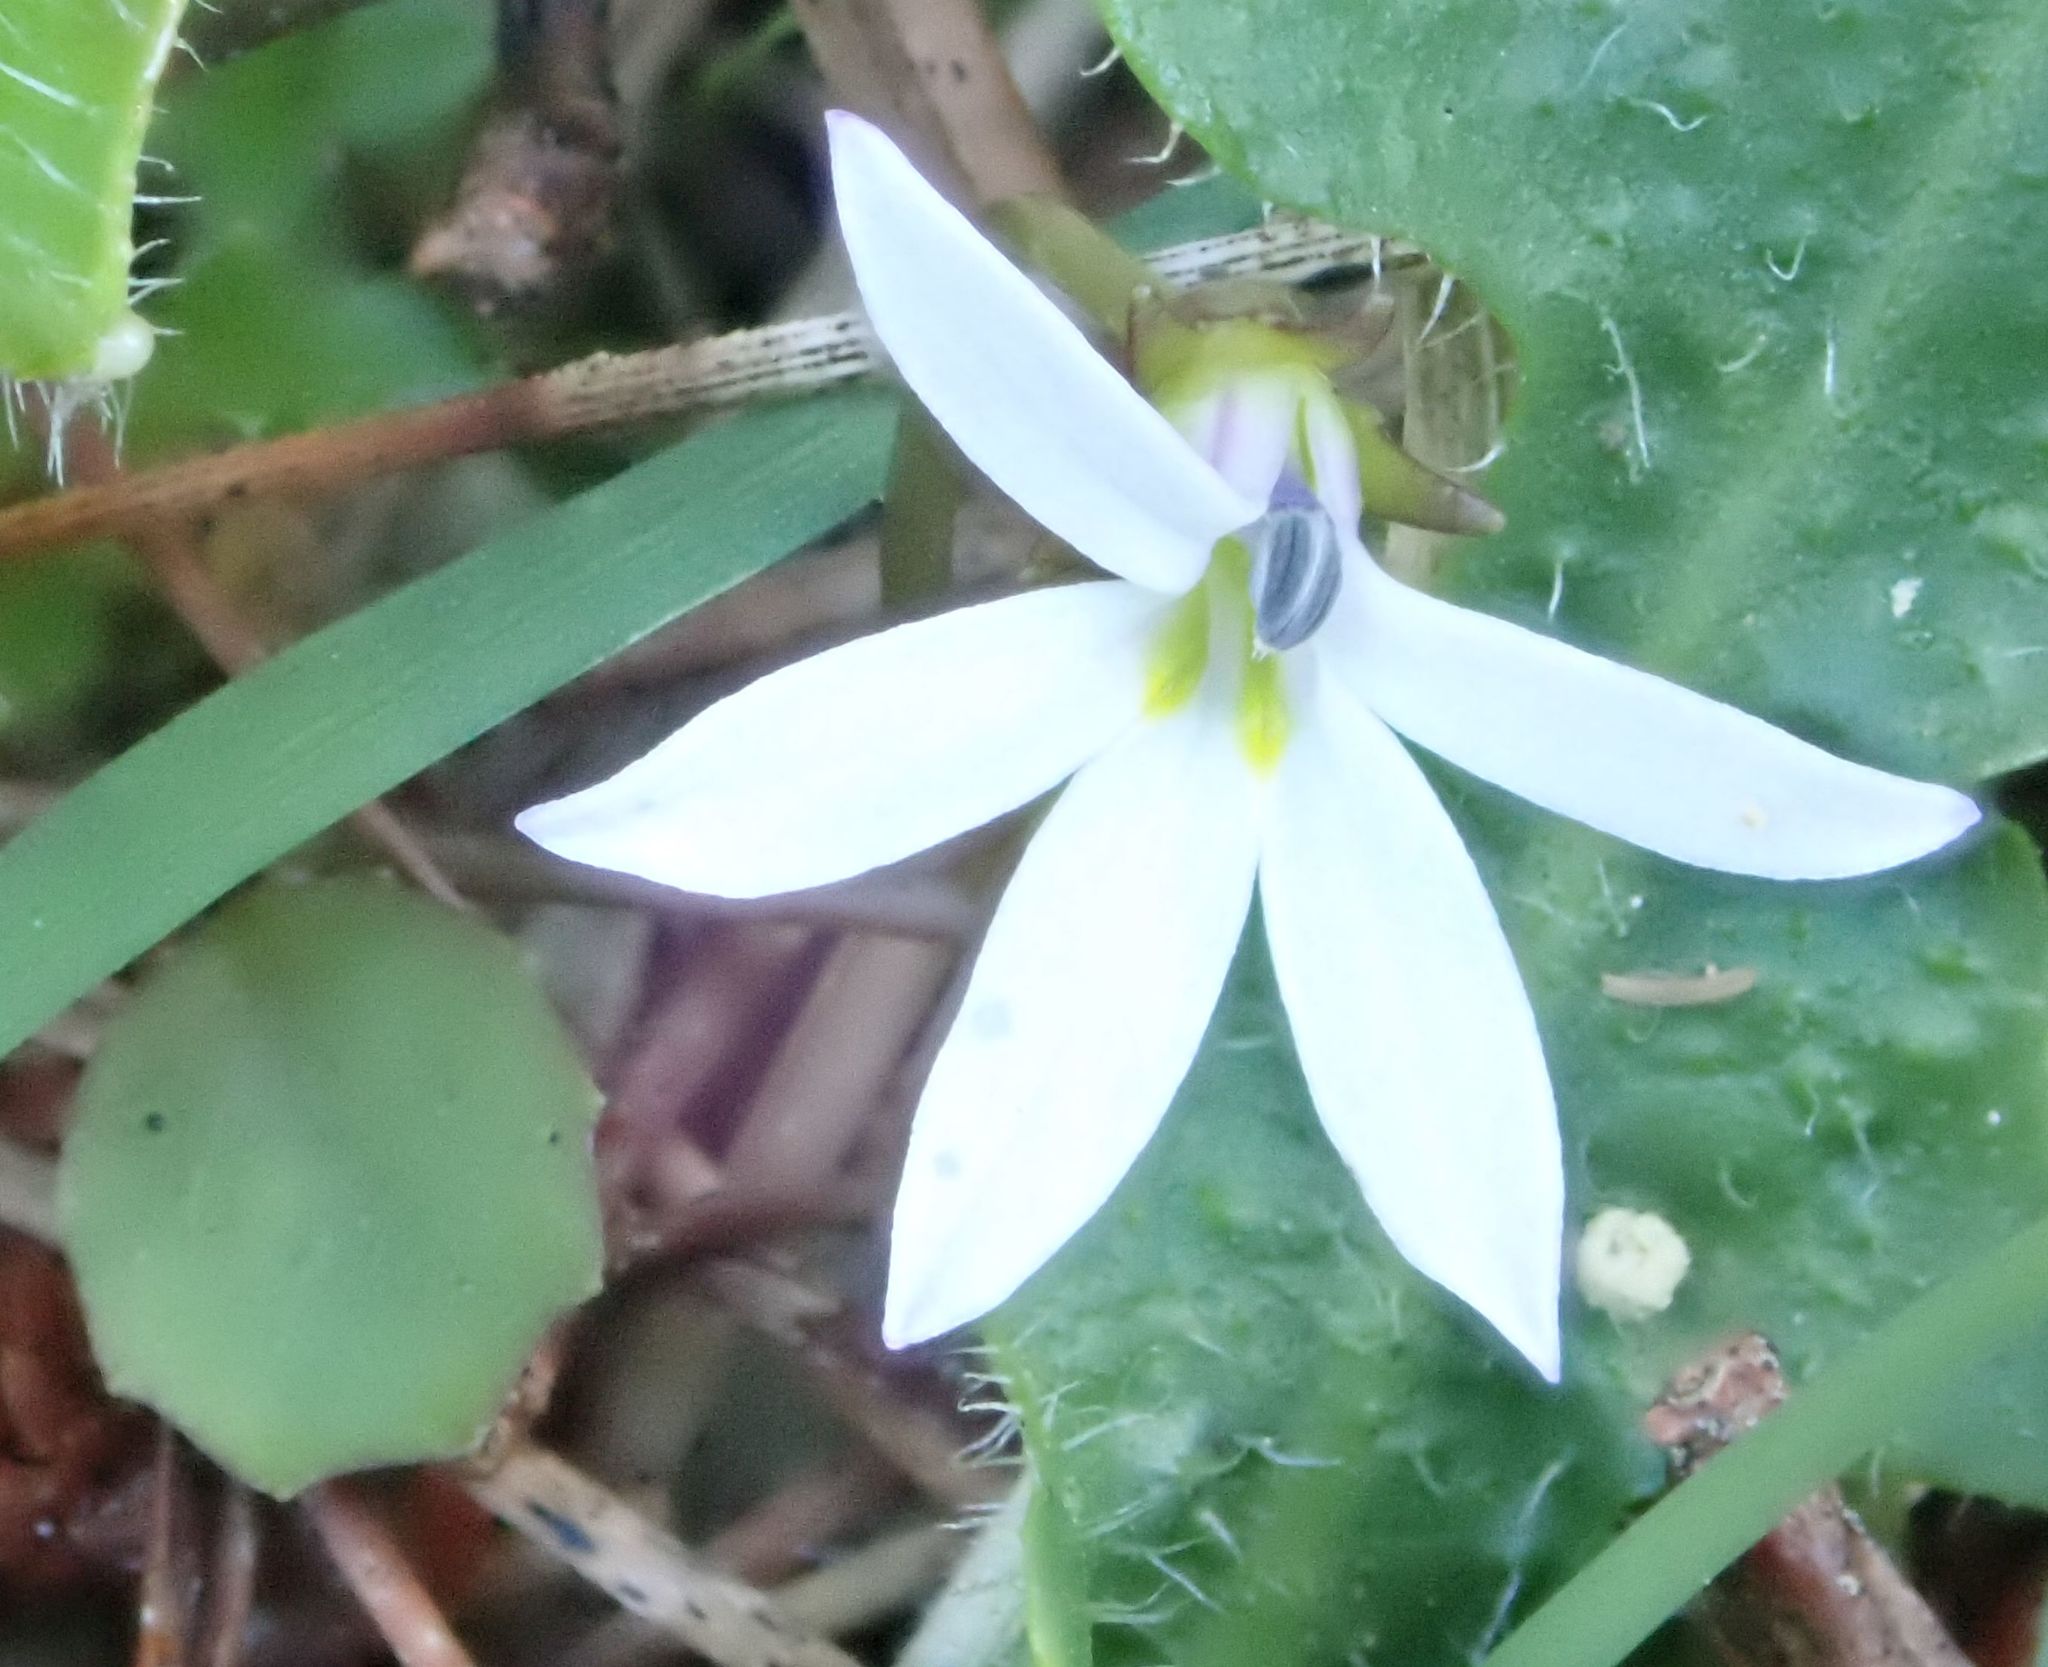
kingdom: Plantae
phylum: Tracheophyta
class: Magnoliopsida
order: Asterales
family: Campanulaceae
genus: Lobelia
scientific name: Lobelia angulata
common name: Lawn lobelia
